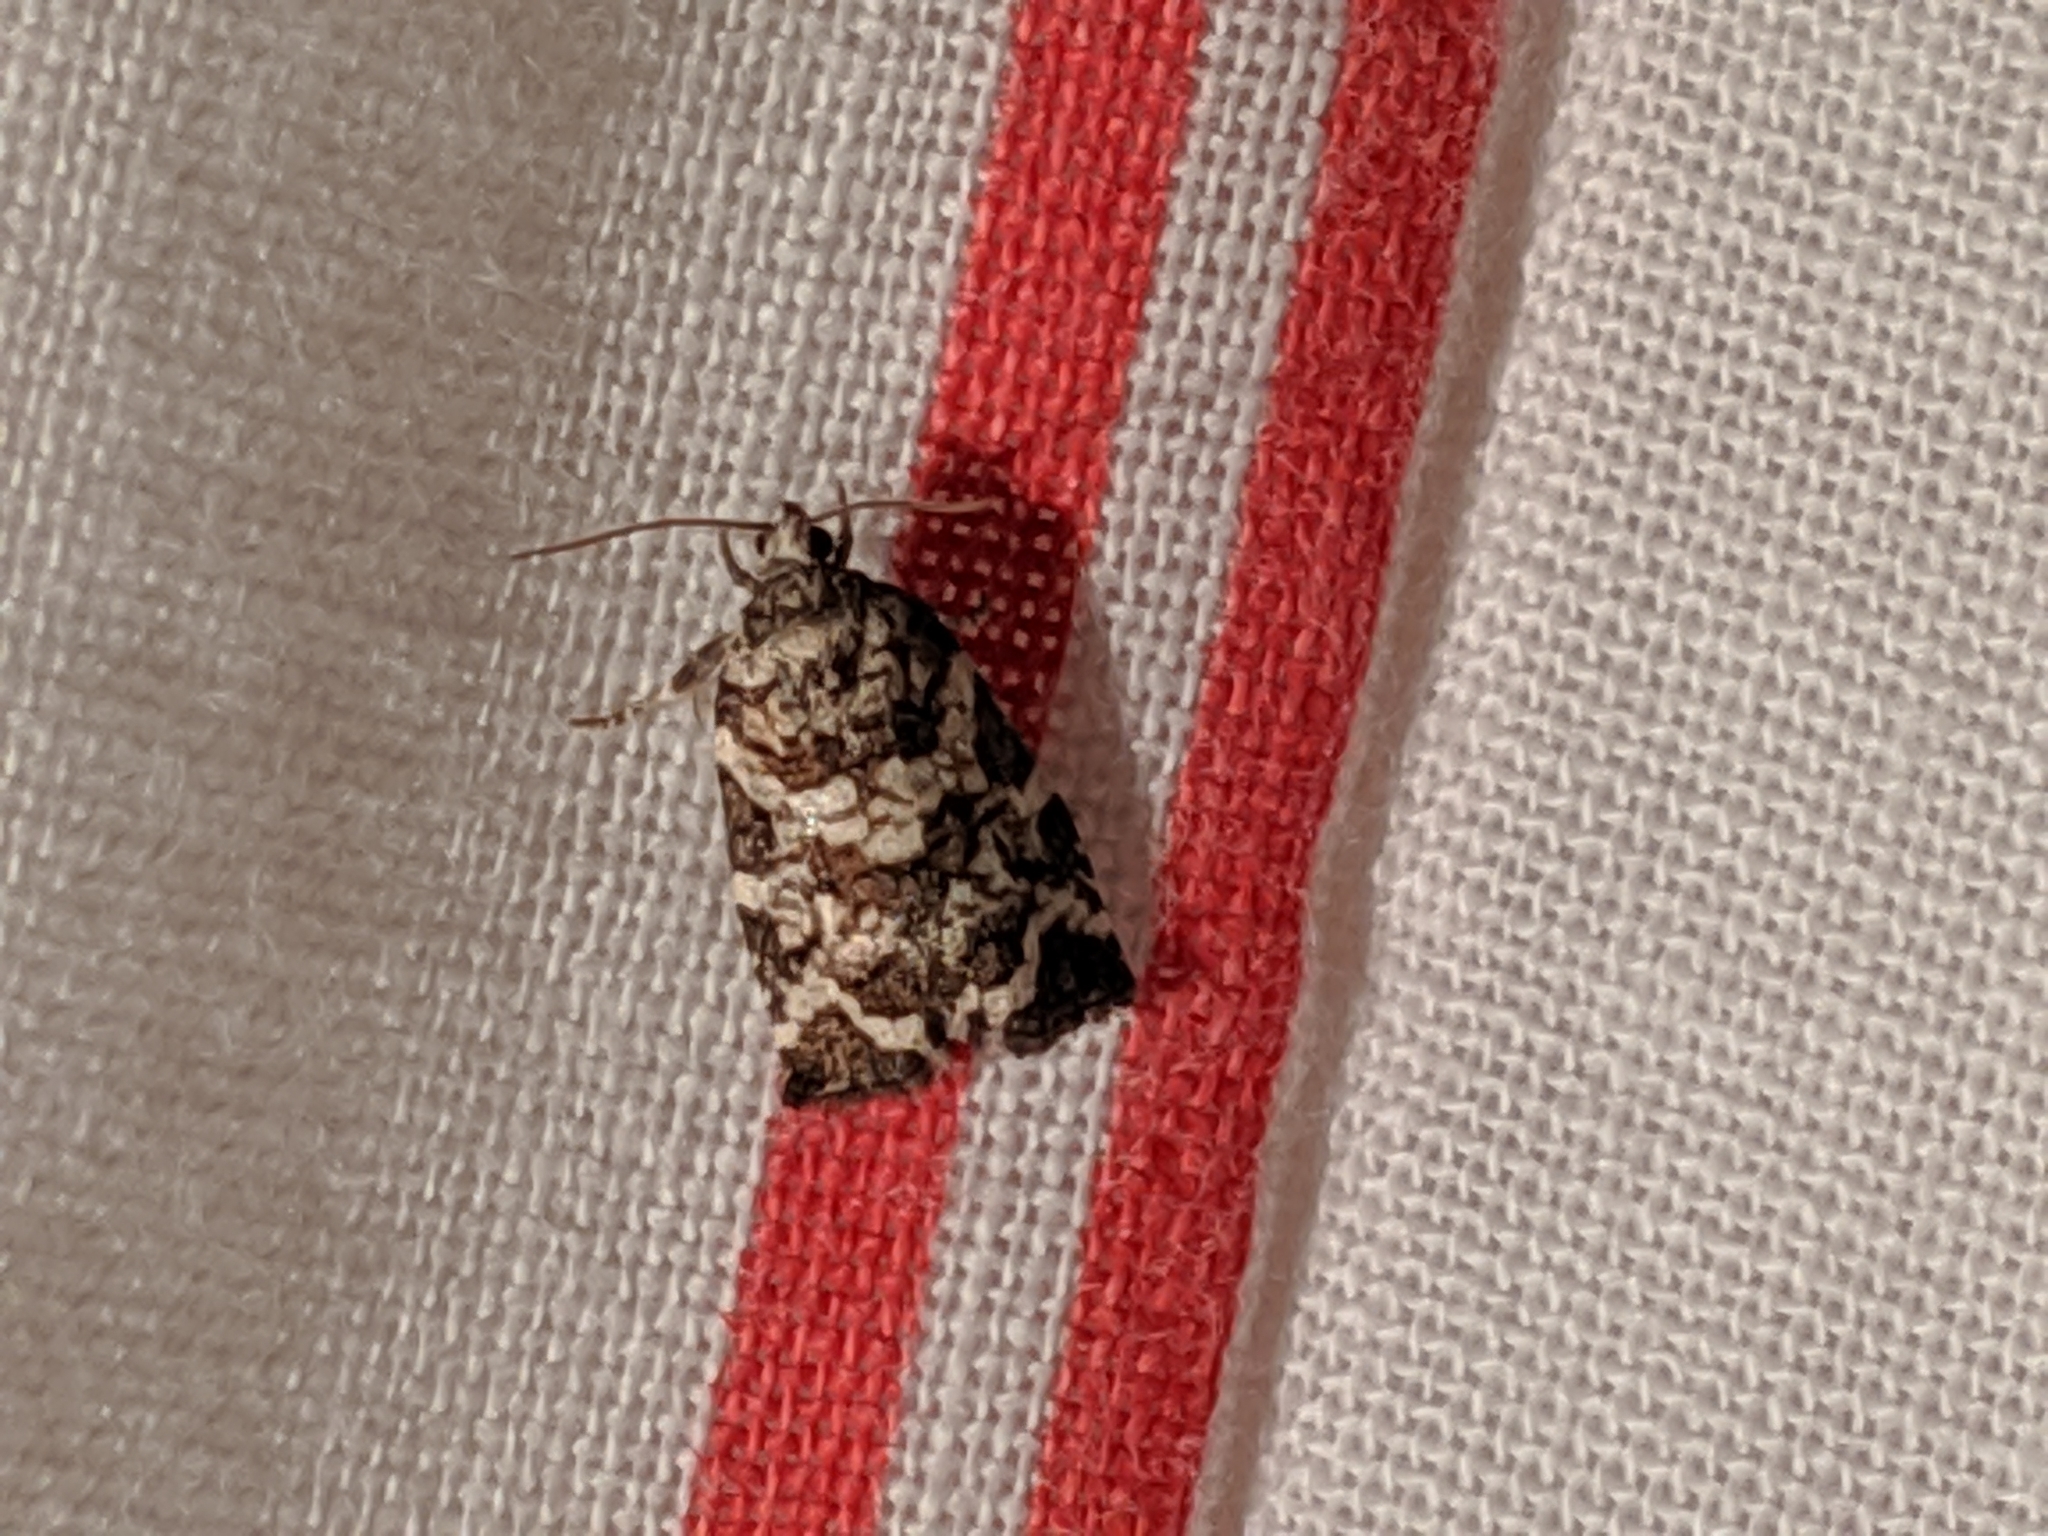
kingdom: Animalia
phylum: Arthropoda
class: Insecta
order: Lepidoptera
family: Tortricidae
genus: Archips
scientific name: Archips packardiana
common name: Spring spruce needle moth
